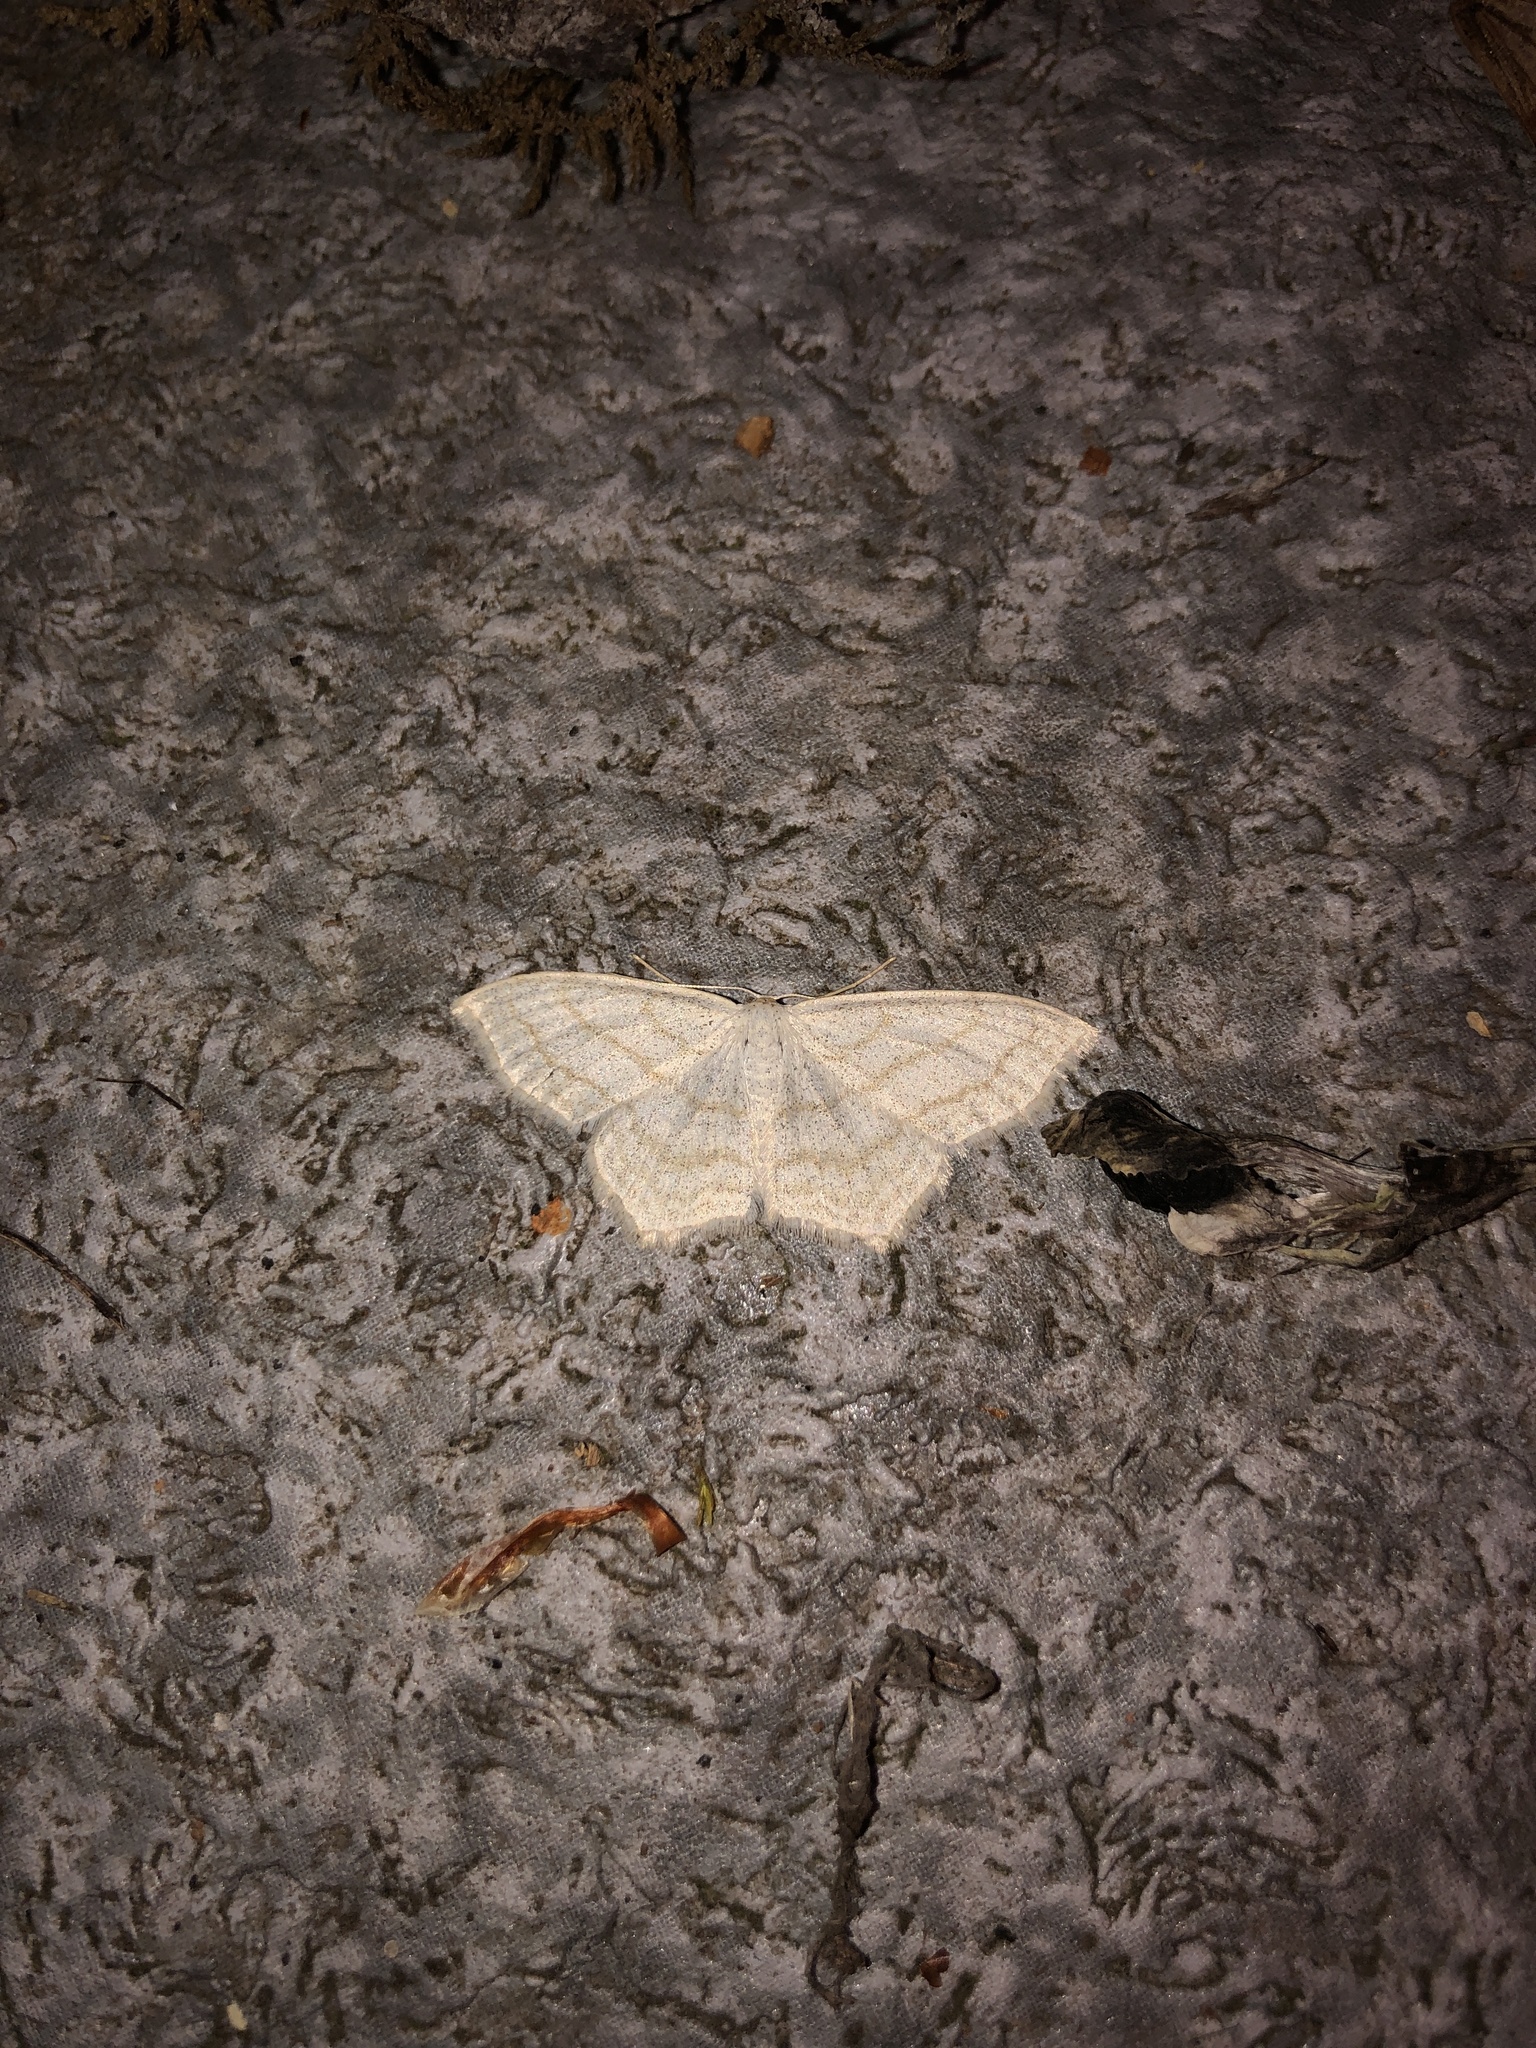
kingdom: Animalia
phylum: Arthropoda
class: Insecta
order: Lepidoptera
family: Geometridae
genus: Scopula
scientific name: Scopula junctaria
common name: Simple wave
